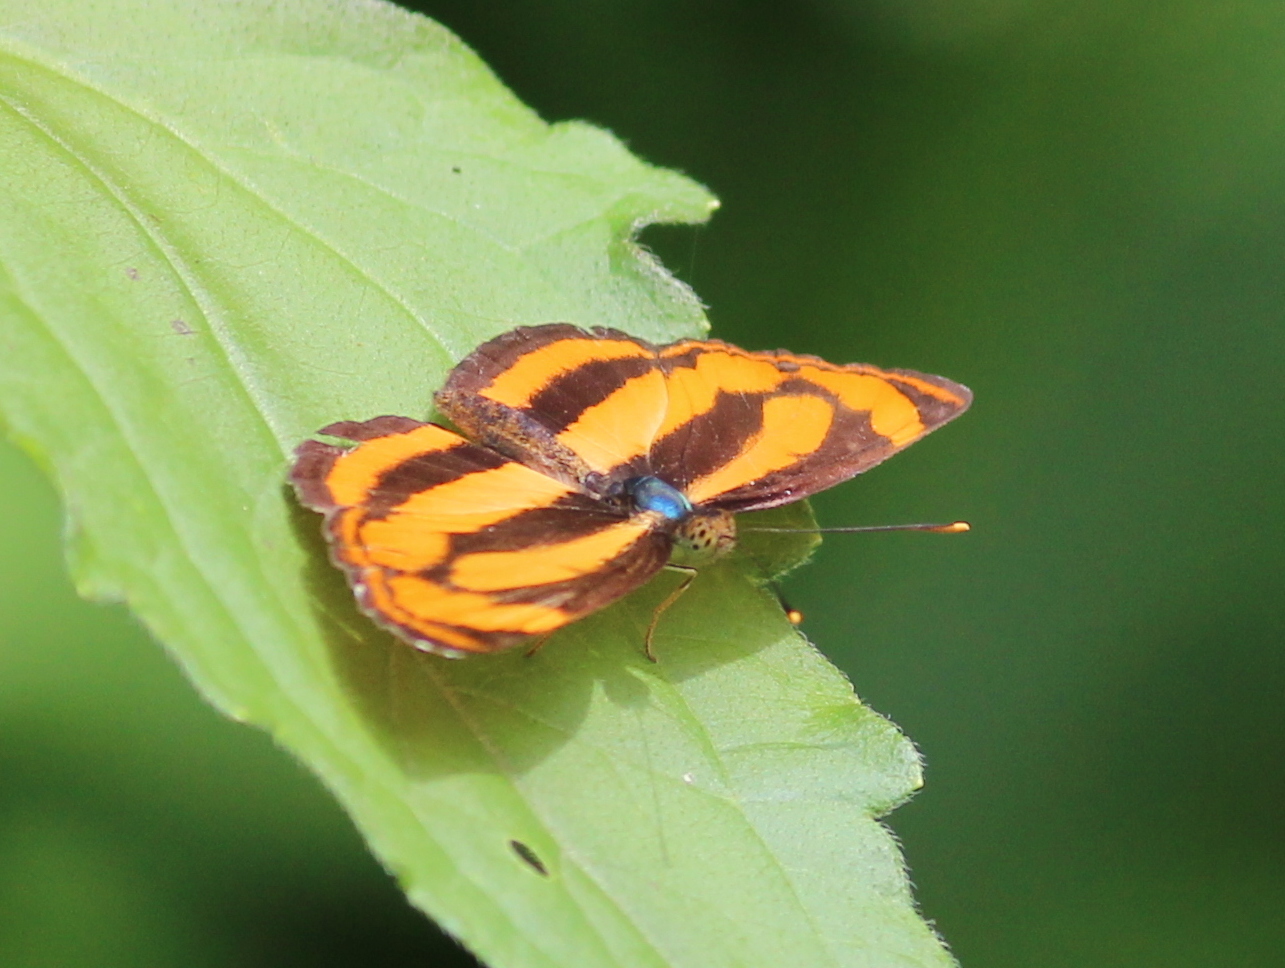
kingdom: Animalia
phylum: Arthropoda
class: Insecta
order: Lepidoptera
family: Nymphalidae
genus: Pantoporia
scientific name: Pantoporia hordonia
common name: Common lascar
